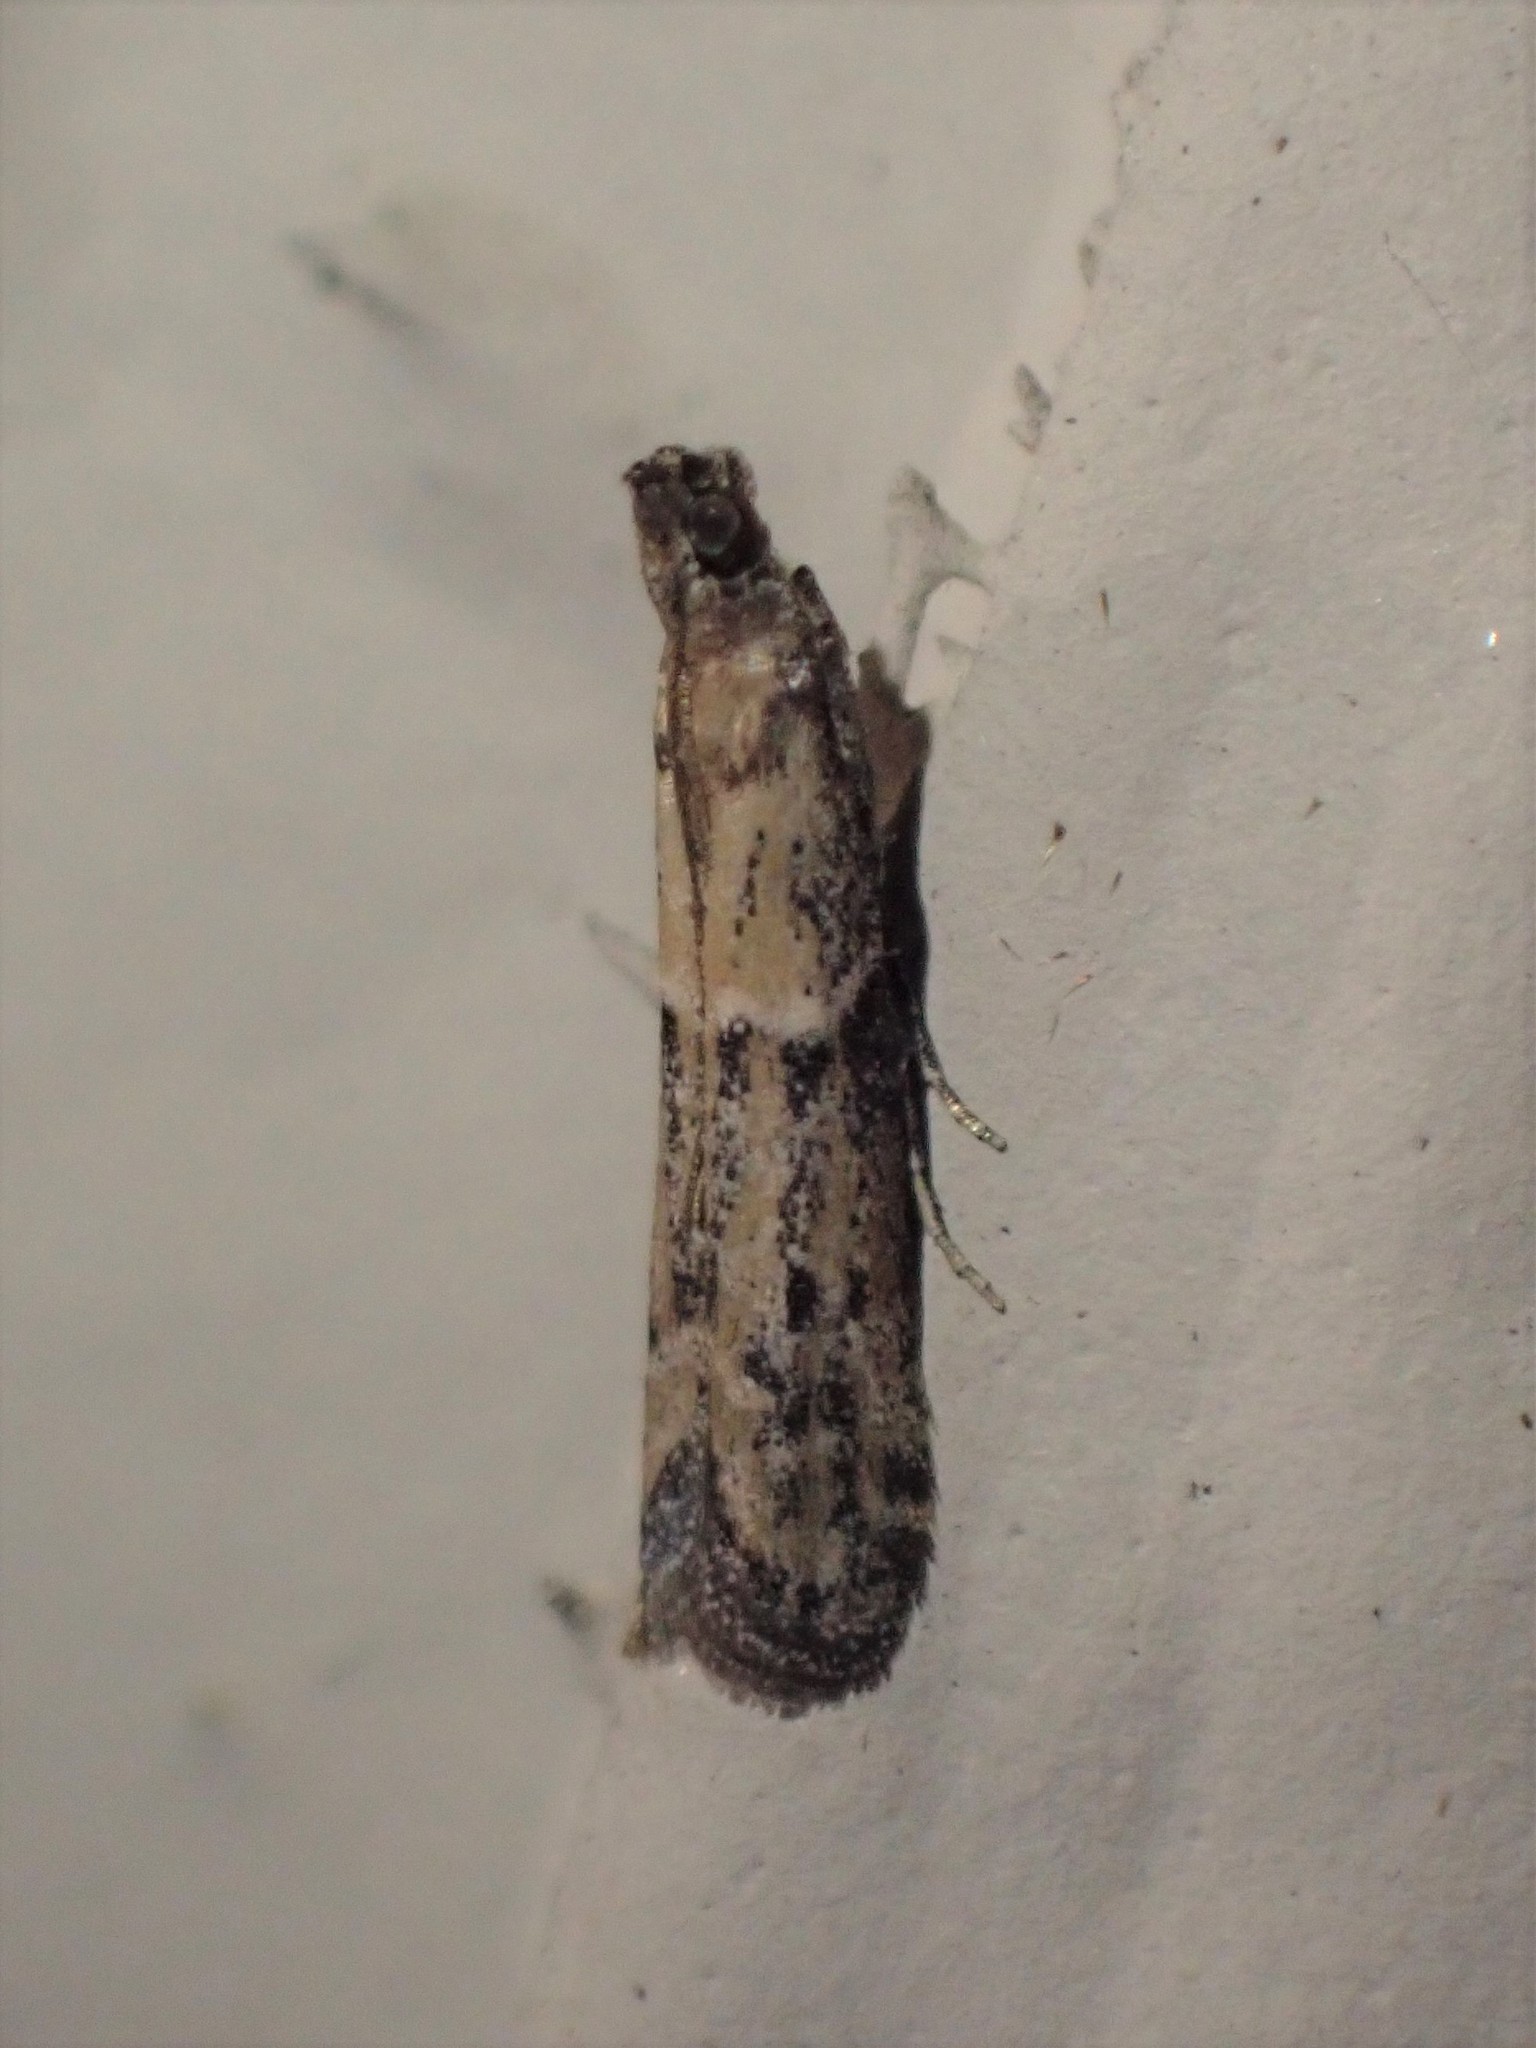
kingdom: Animalia
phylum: Arthropoda
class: Insecta
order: Lepidoptera
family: Pyralidae
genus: Ephestiodes
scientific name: Ephestiodes gilvescentella
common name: Moth
